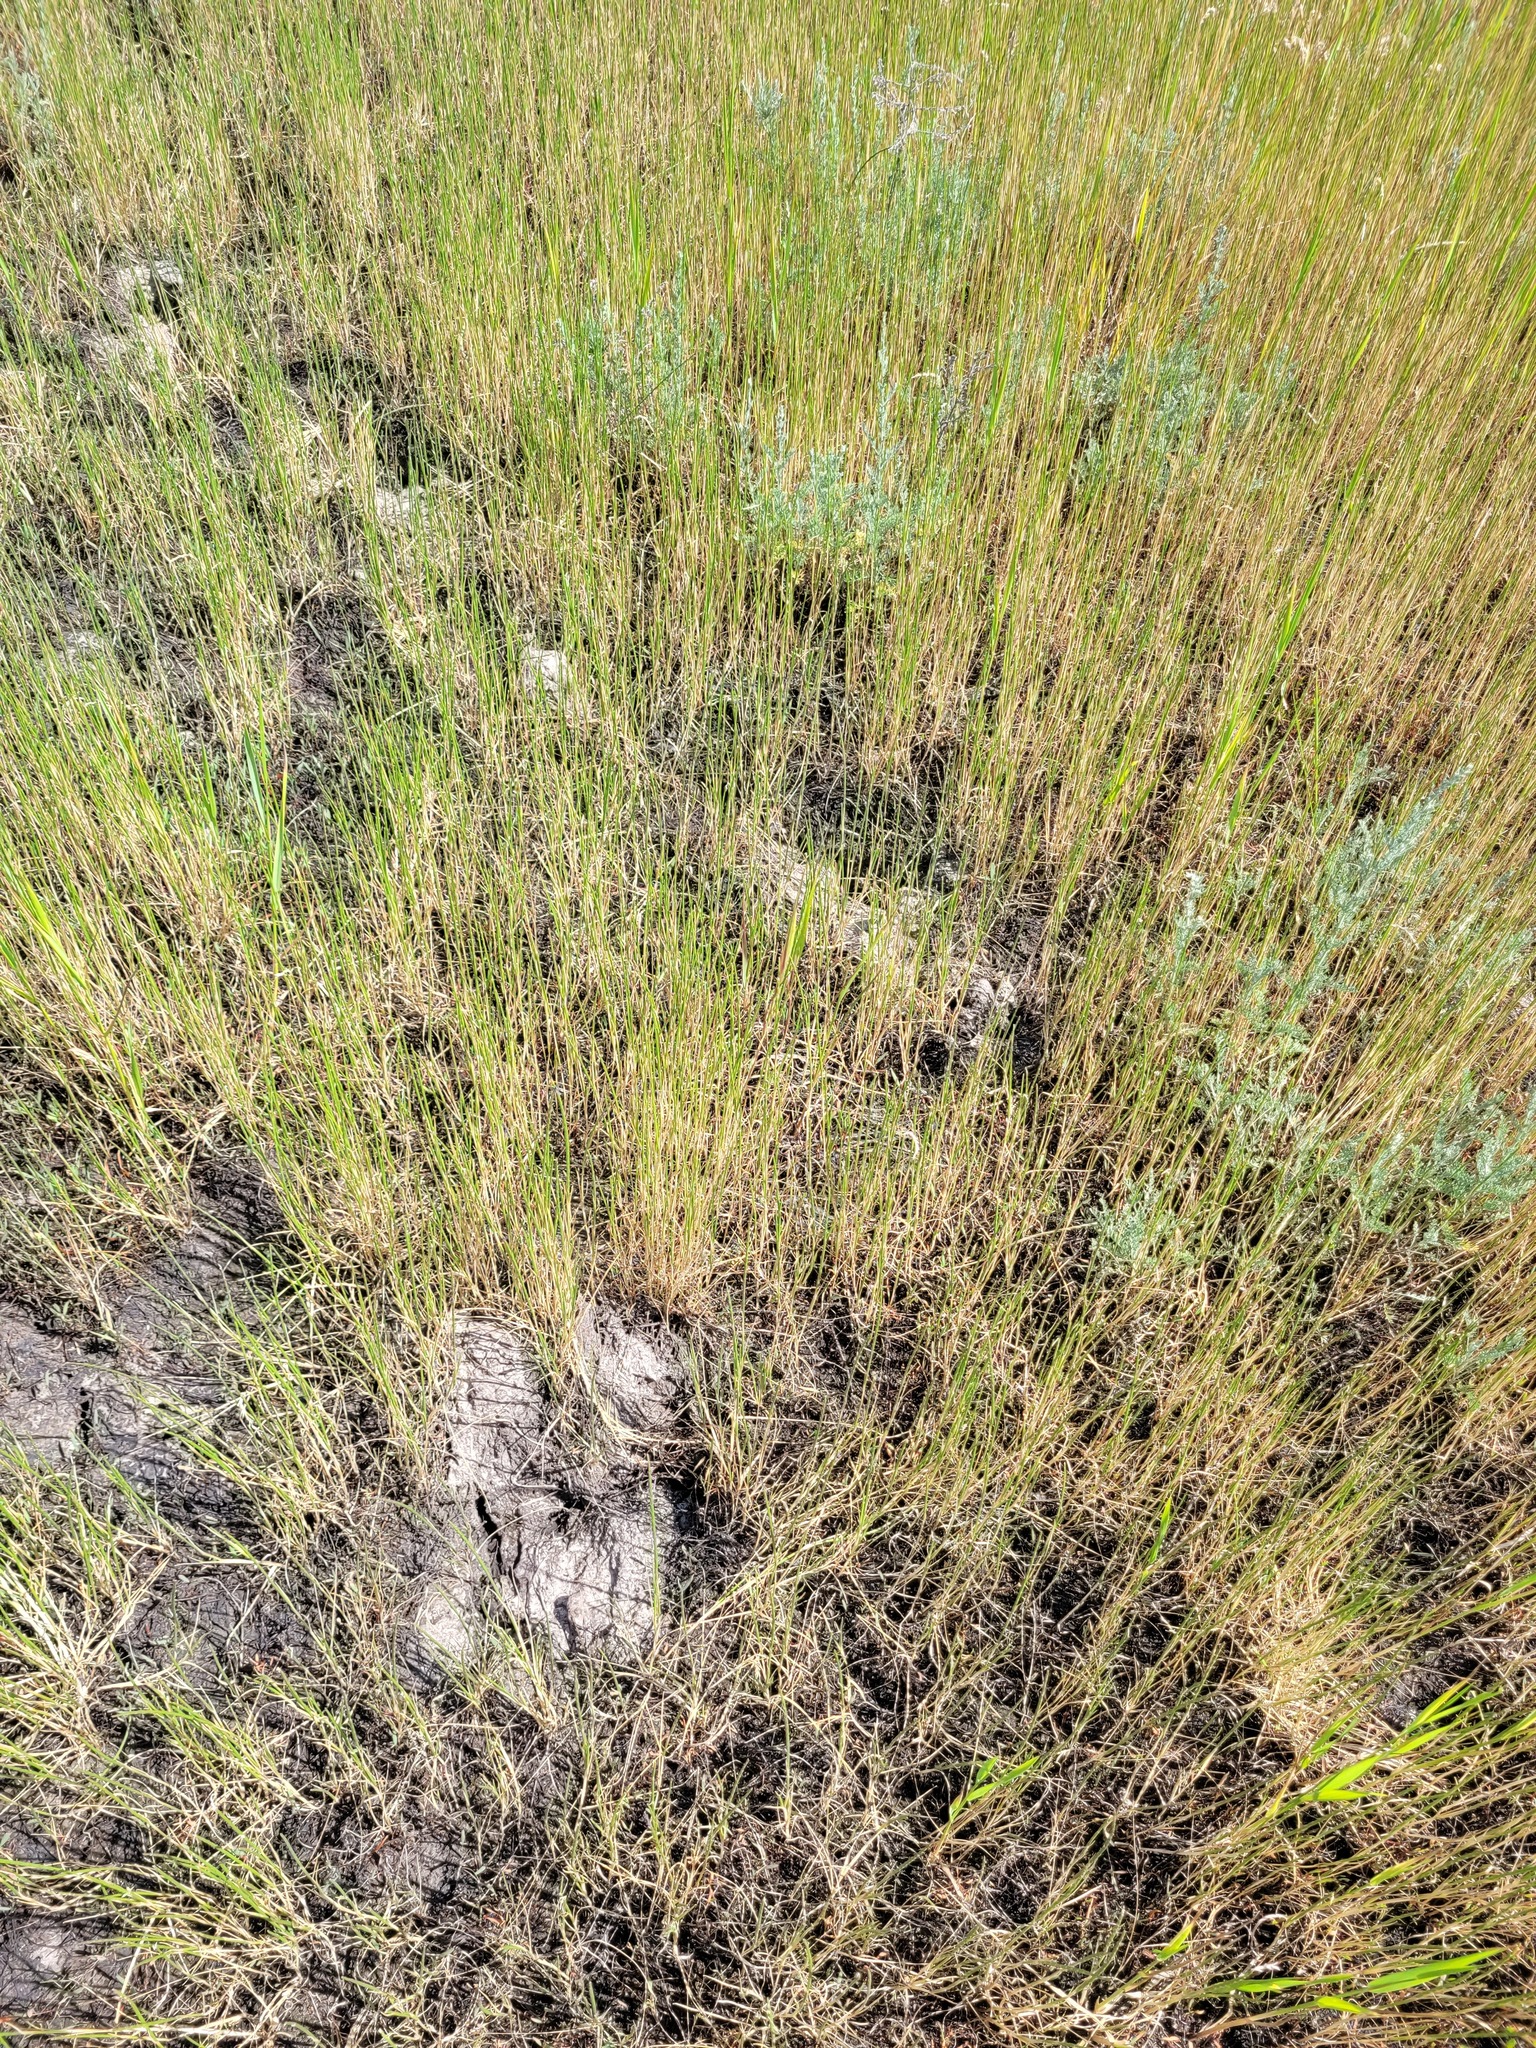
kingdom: Plantae
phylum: Tracheophyta
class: Liliopsida
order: Poales
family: Poaceae
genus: Pholiurus
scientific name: Pholiurus pannonicus
